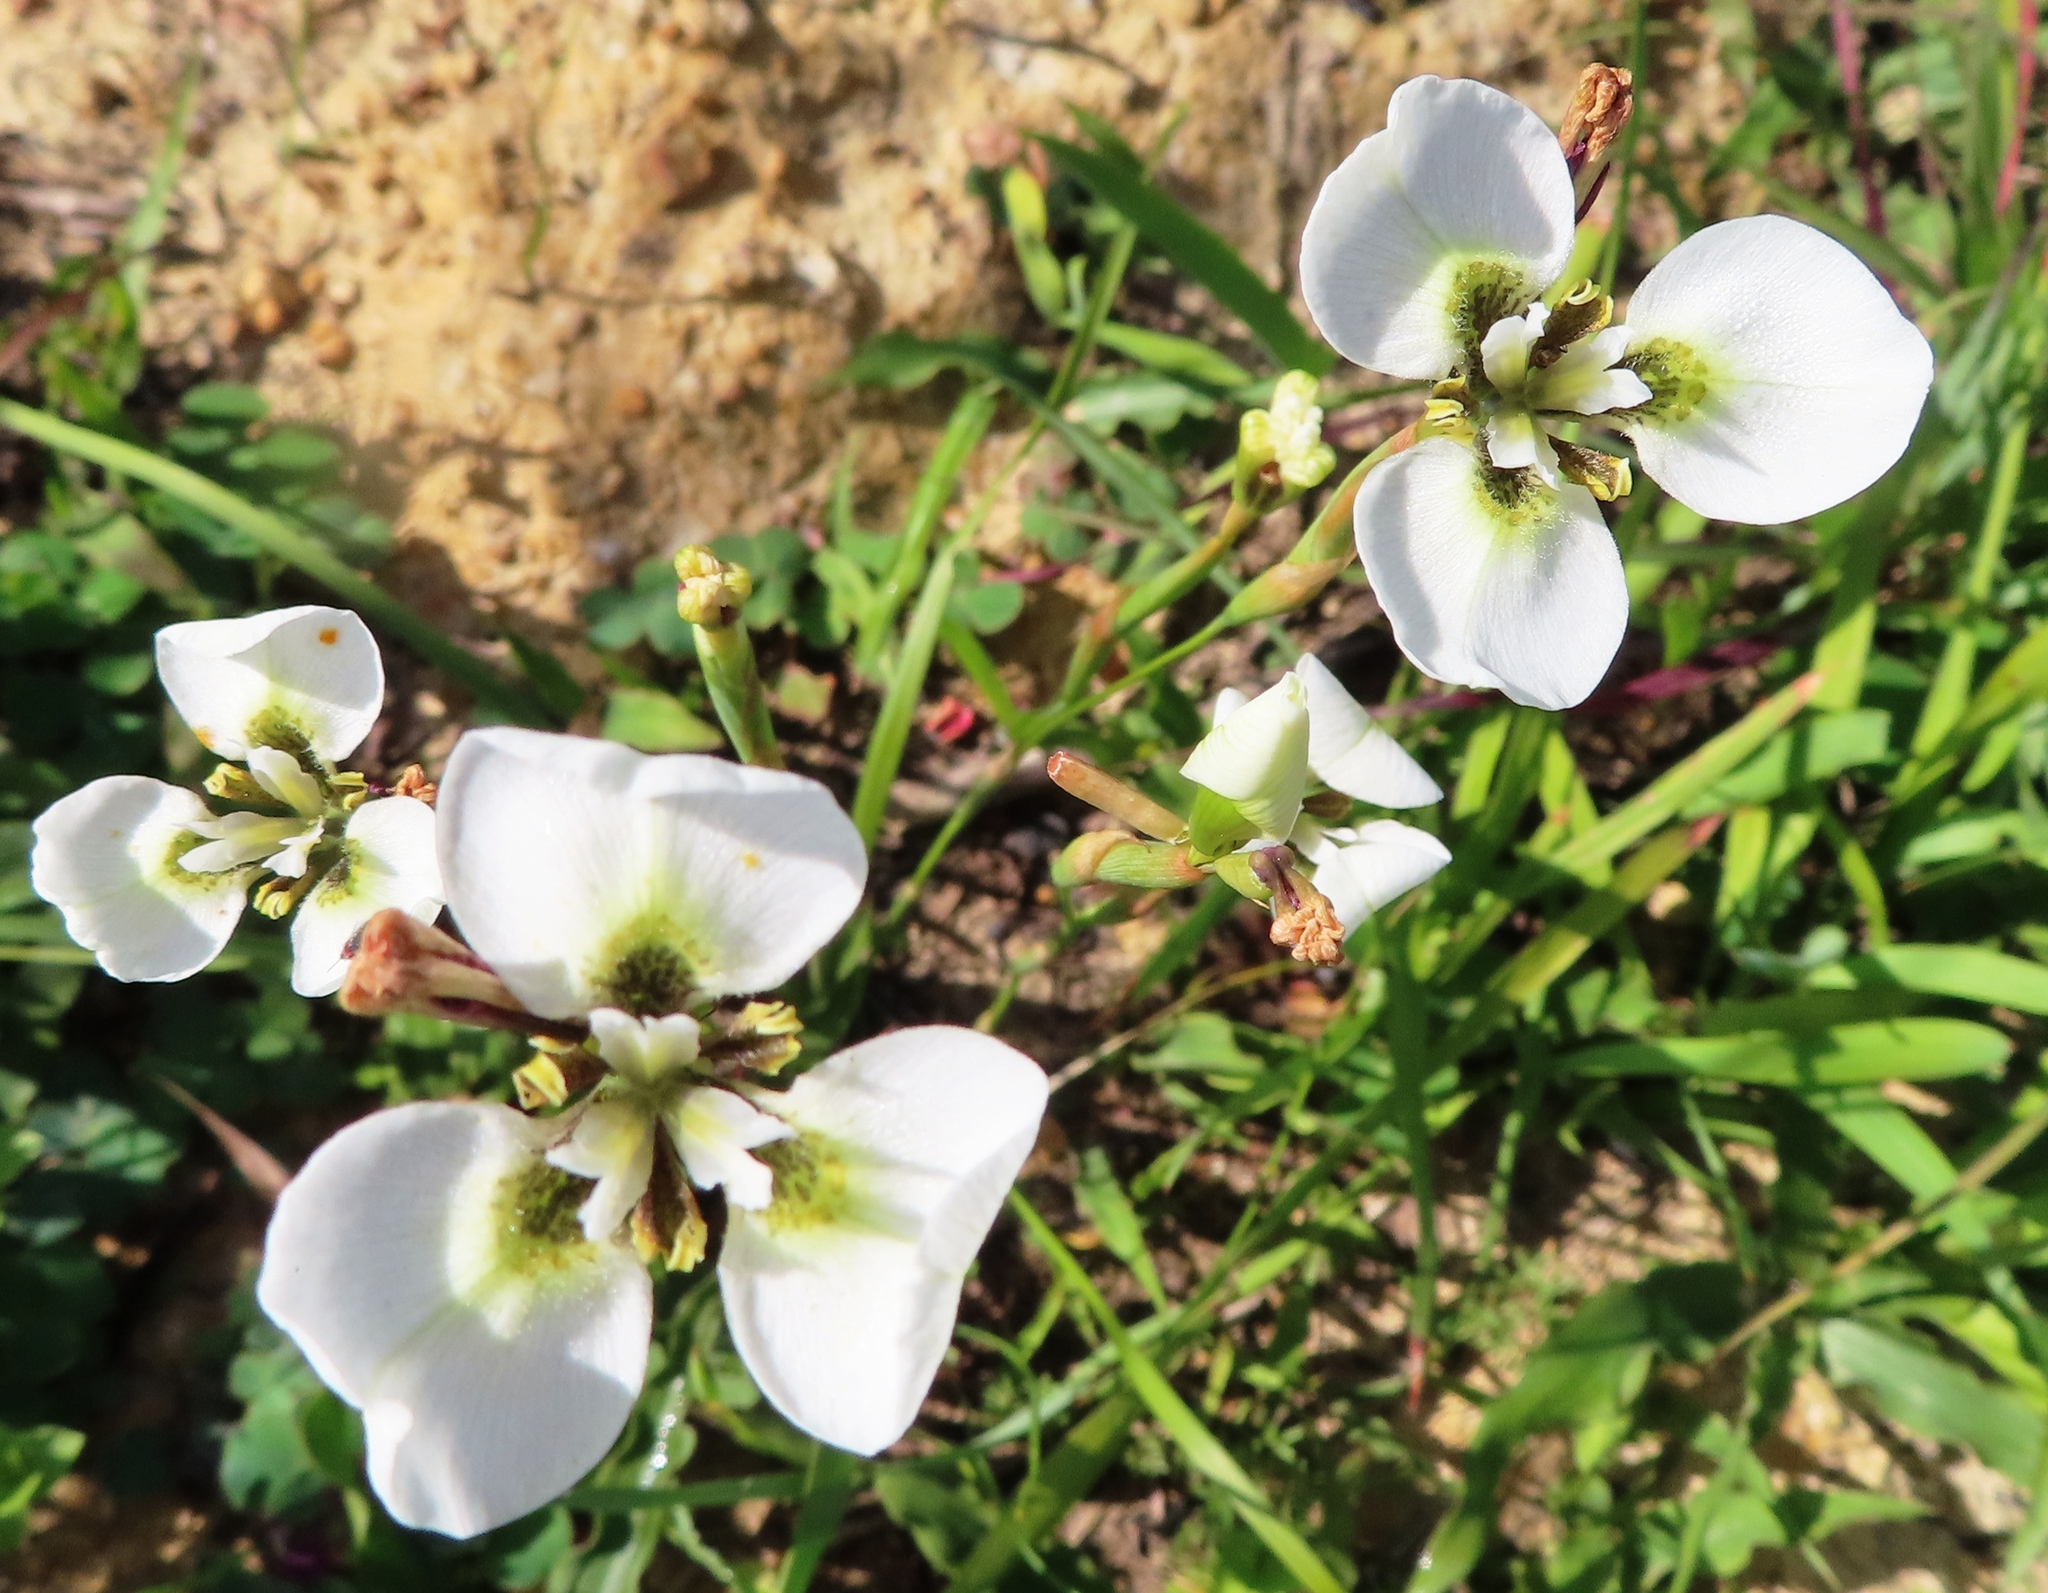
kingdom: Plantae
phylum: Tracheophyta
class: Liliopsida
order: Asparagales
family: Iridaceae
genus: Moraea
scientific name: Moraea tricuspidata
